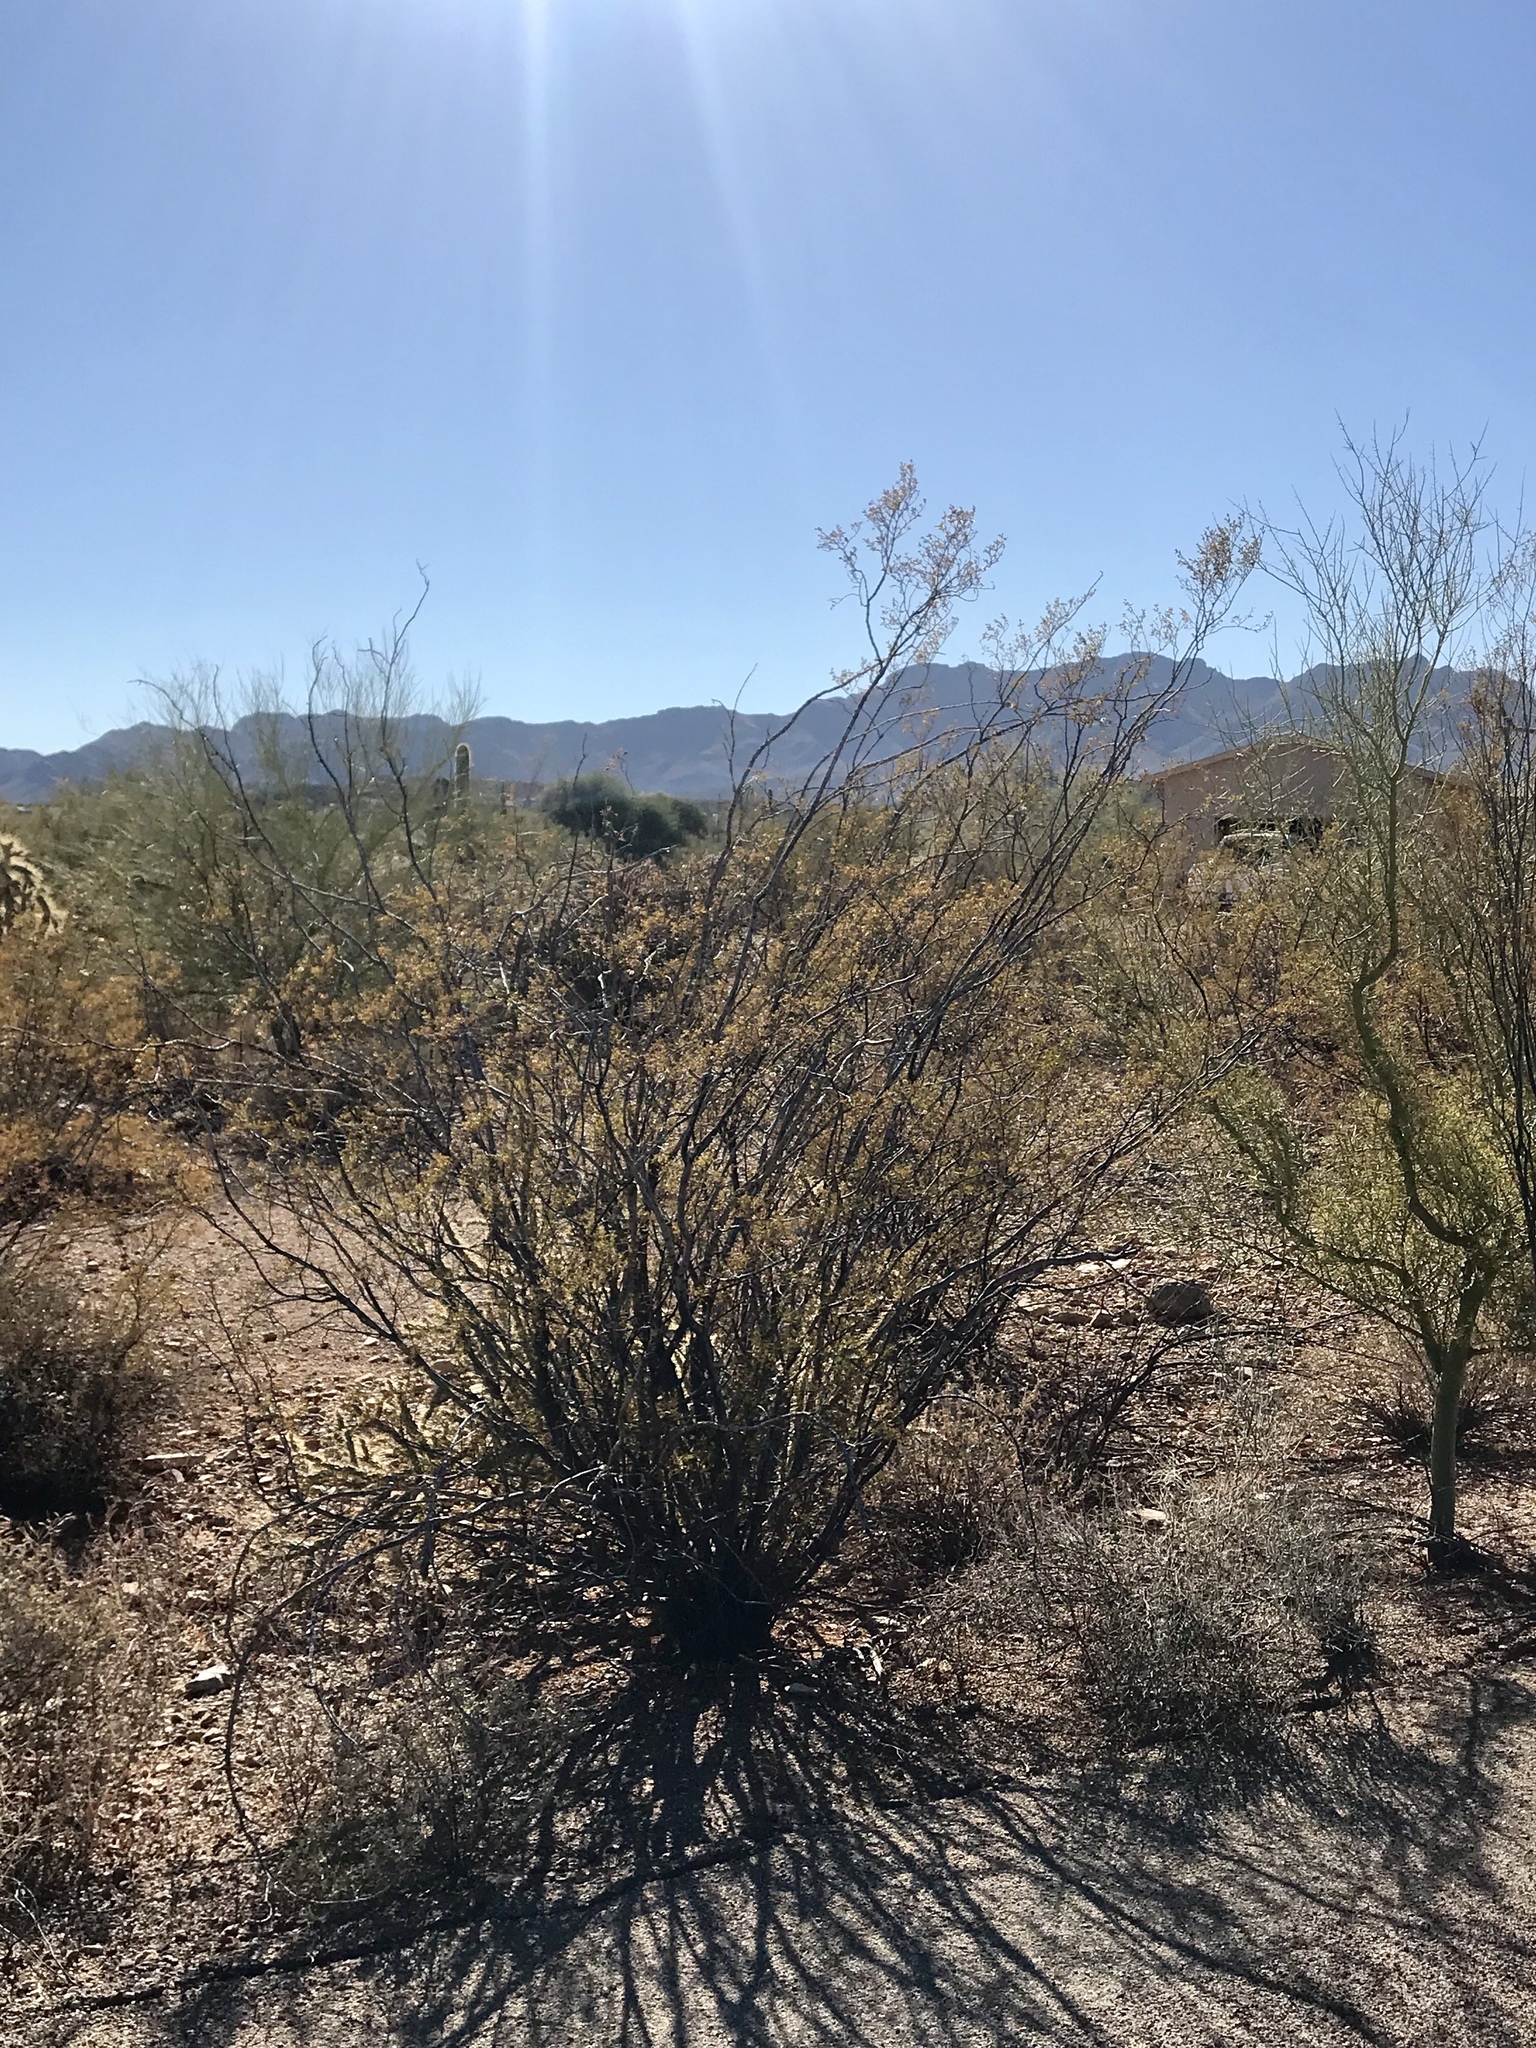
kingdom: Plantae
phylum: Tracheophyta
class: Magnoliopsida
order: Zygophyllales
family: Zygophyllaceae
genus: Larrea
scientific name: Larrea tridentata
